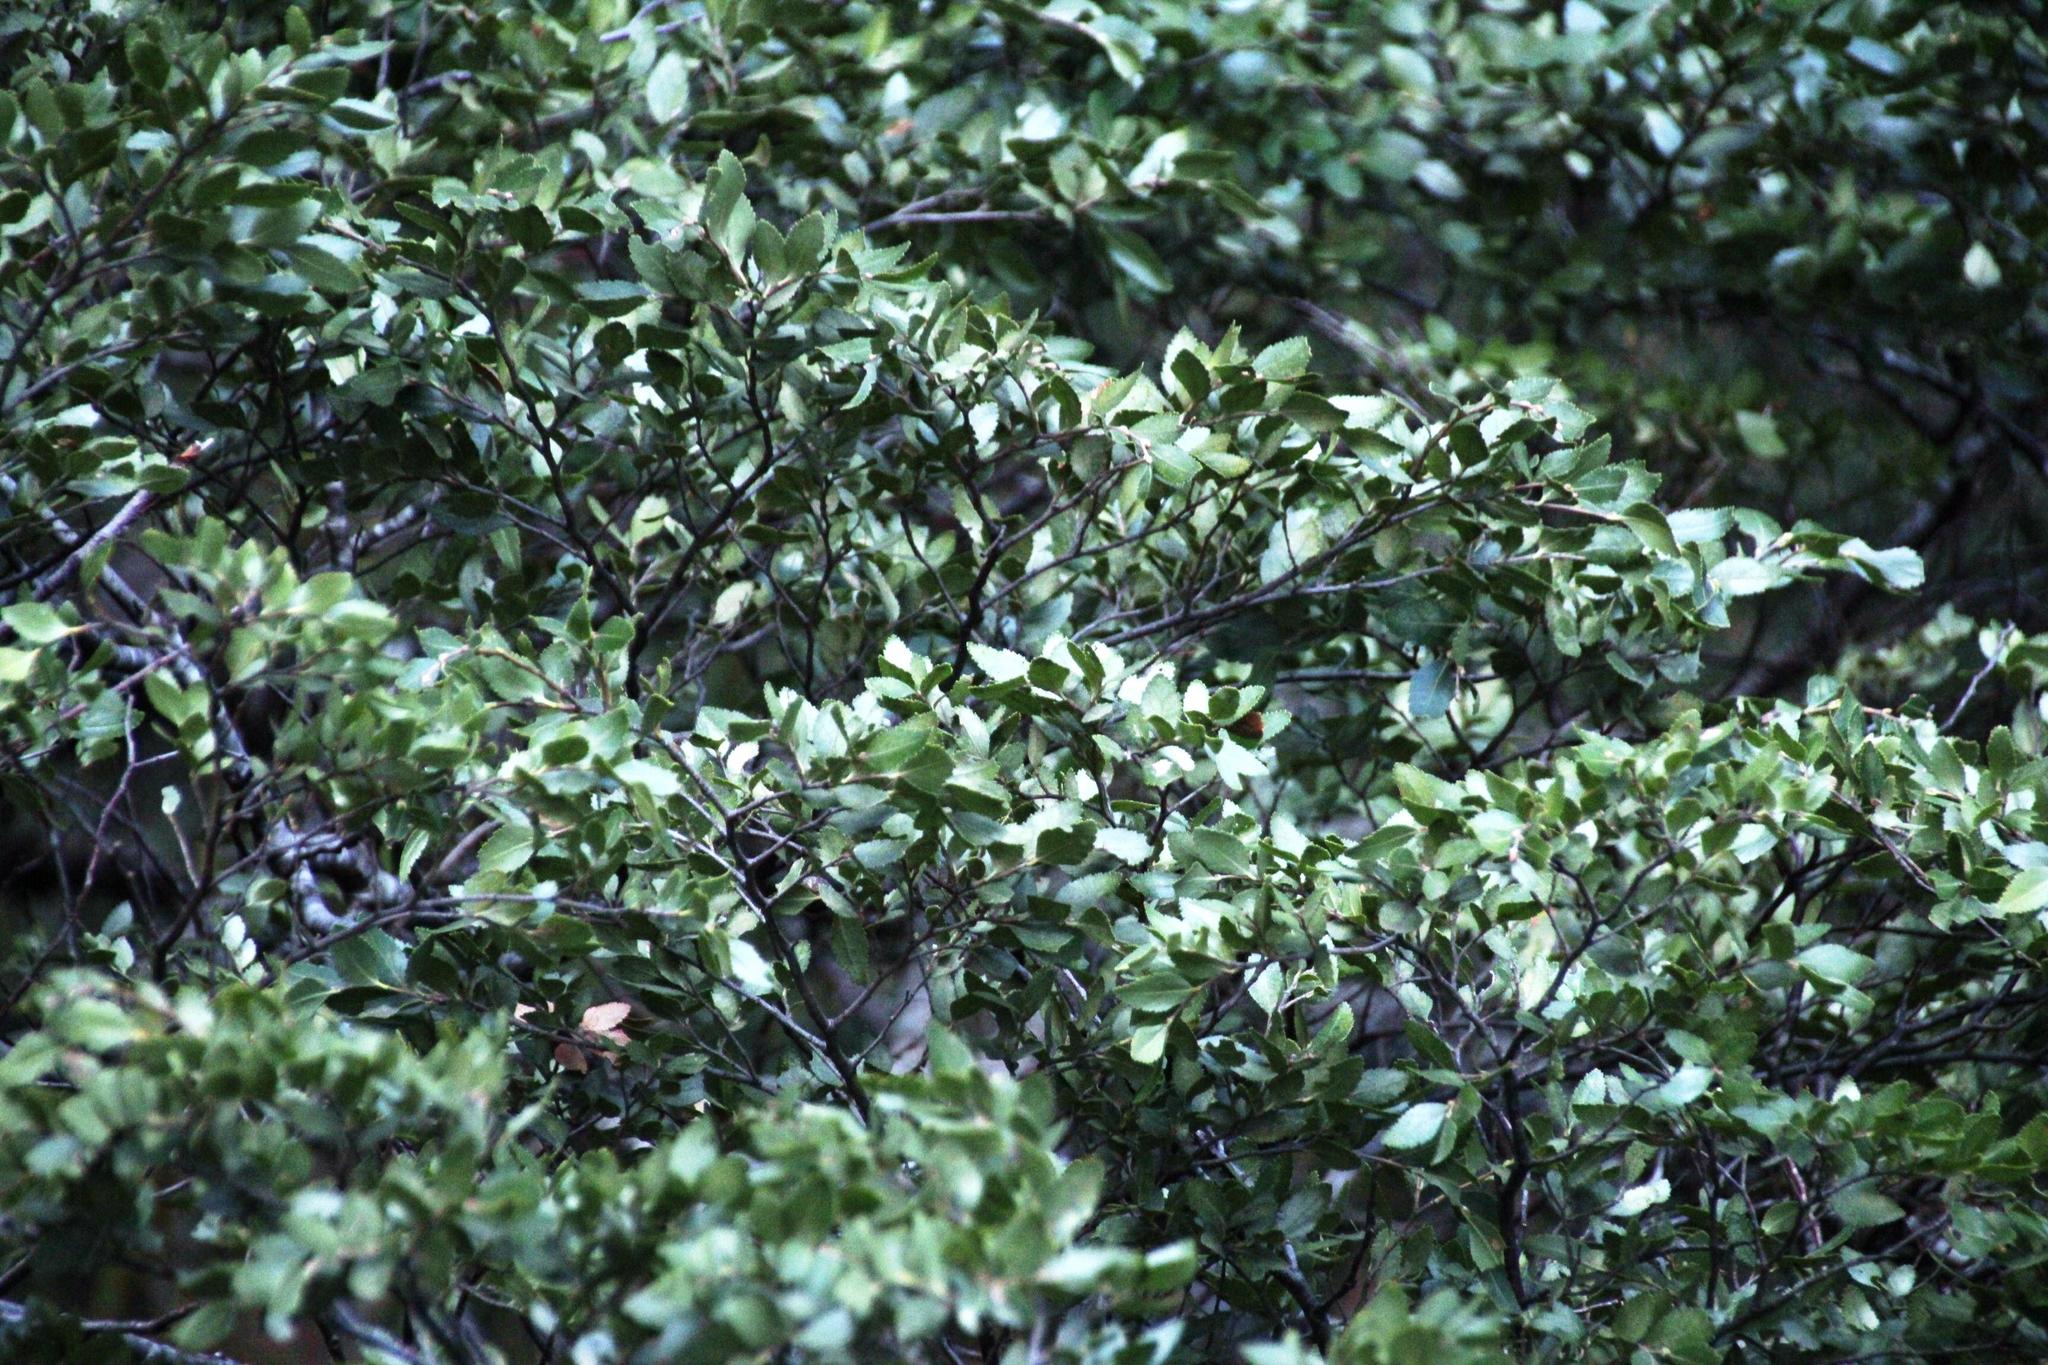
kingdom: Plantae
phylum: Tracheophyta
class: Magnoliopsida
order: Fagales
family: Nothofagaceae
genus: Nothofagus
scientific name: Nothofagus dombeyi
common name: Coigue
